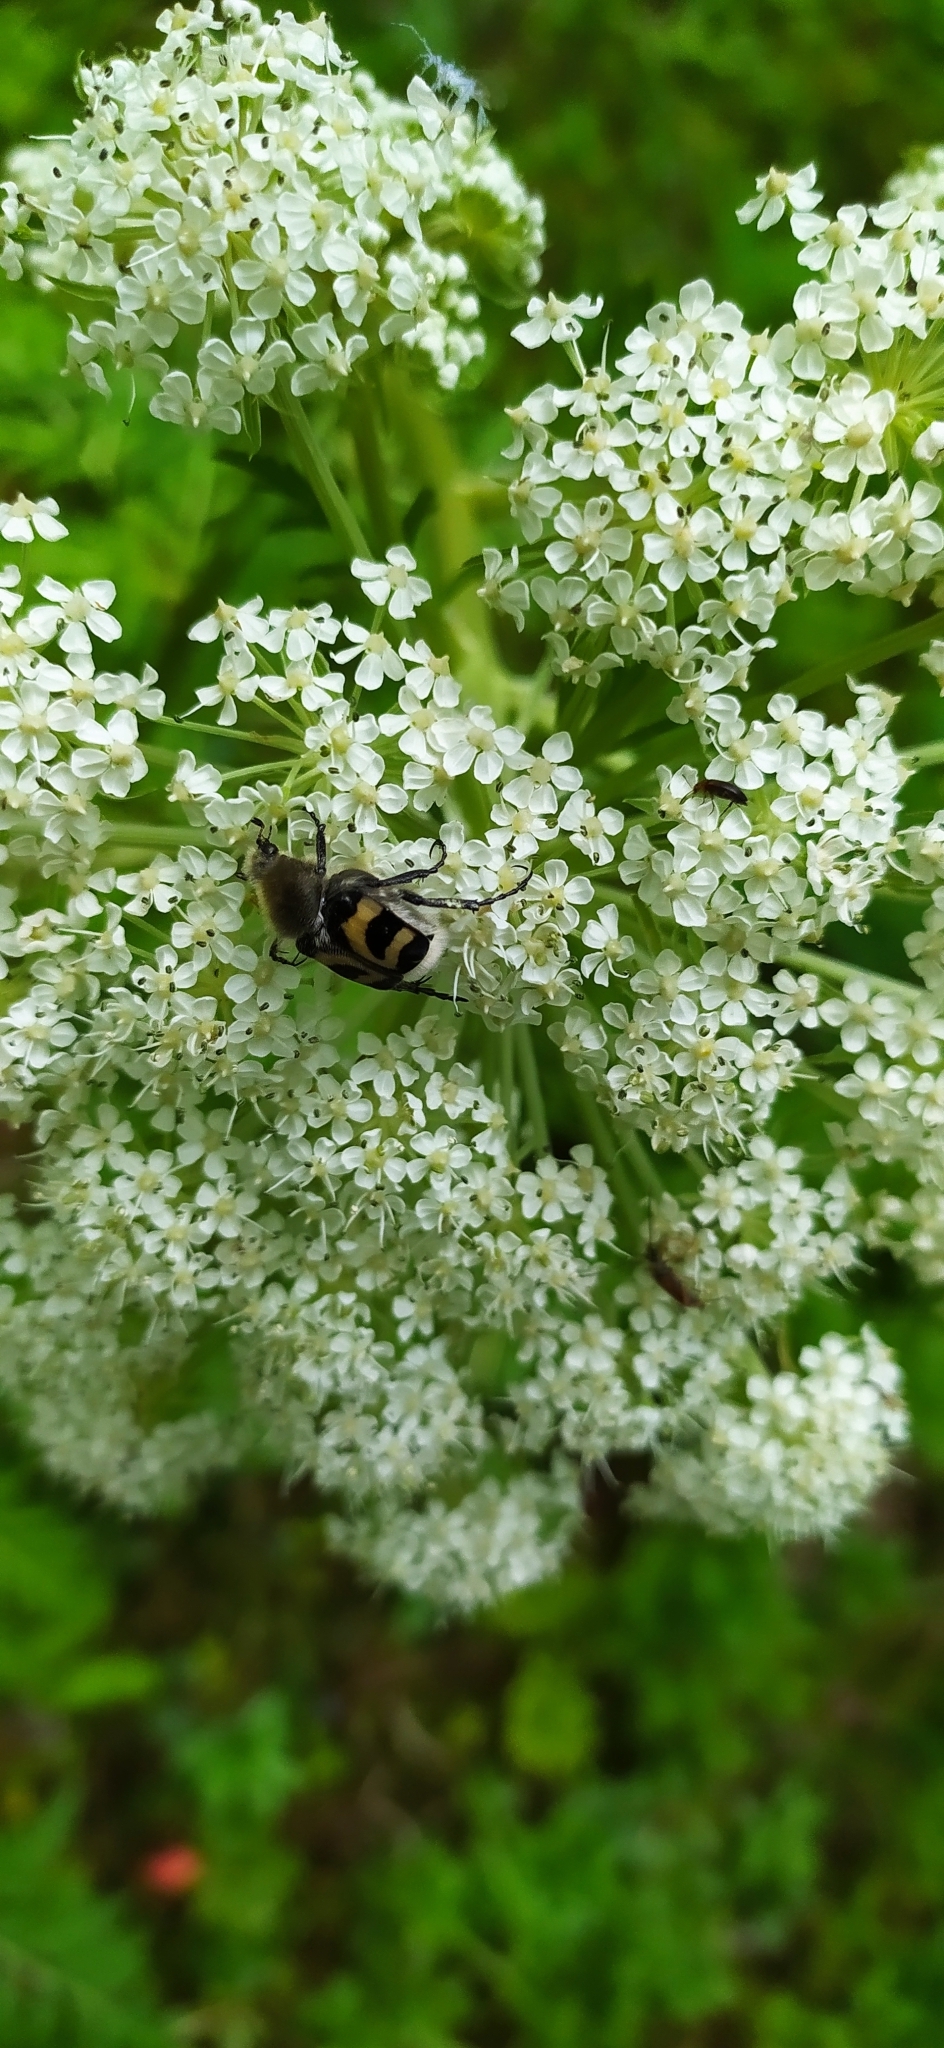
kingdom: Animalia
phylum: Arthropoda
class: Insecta
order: Coleoptera
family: Scarabaeidae
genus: Trichius
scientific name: Trichius fasciatus
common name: Bee beetle
